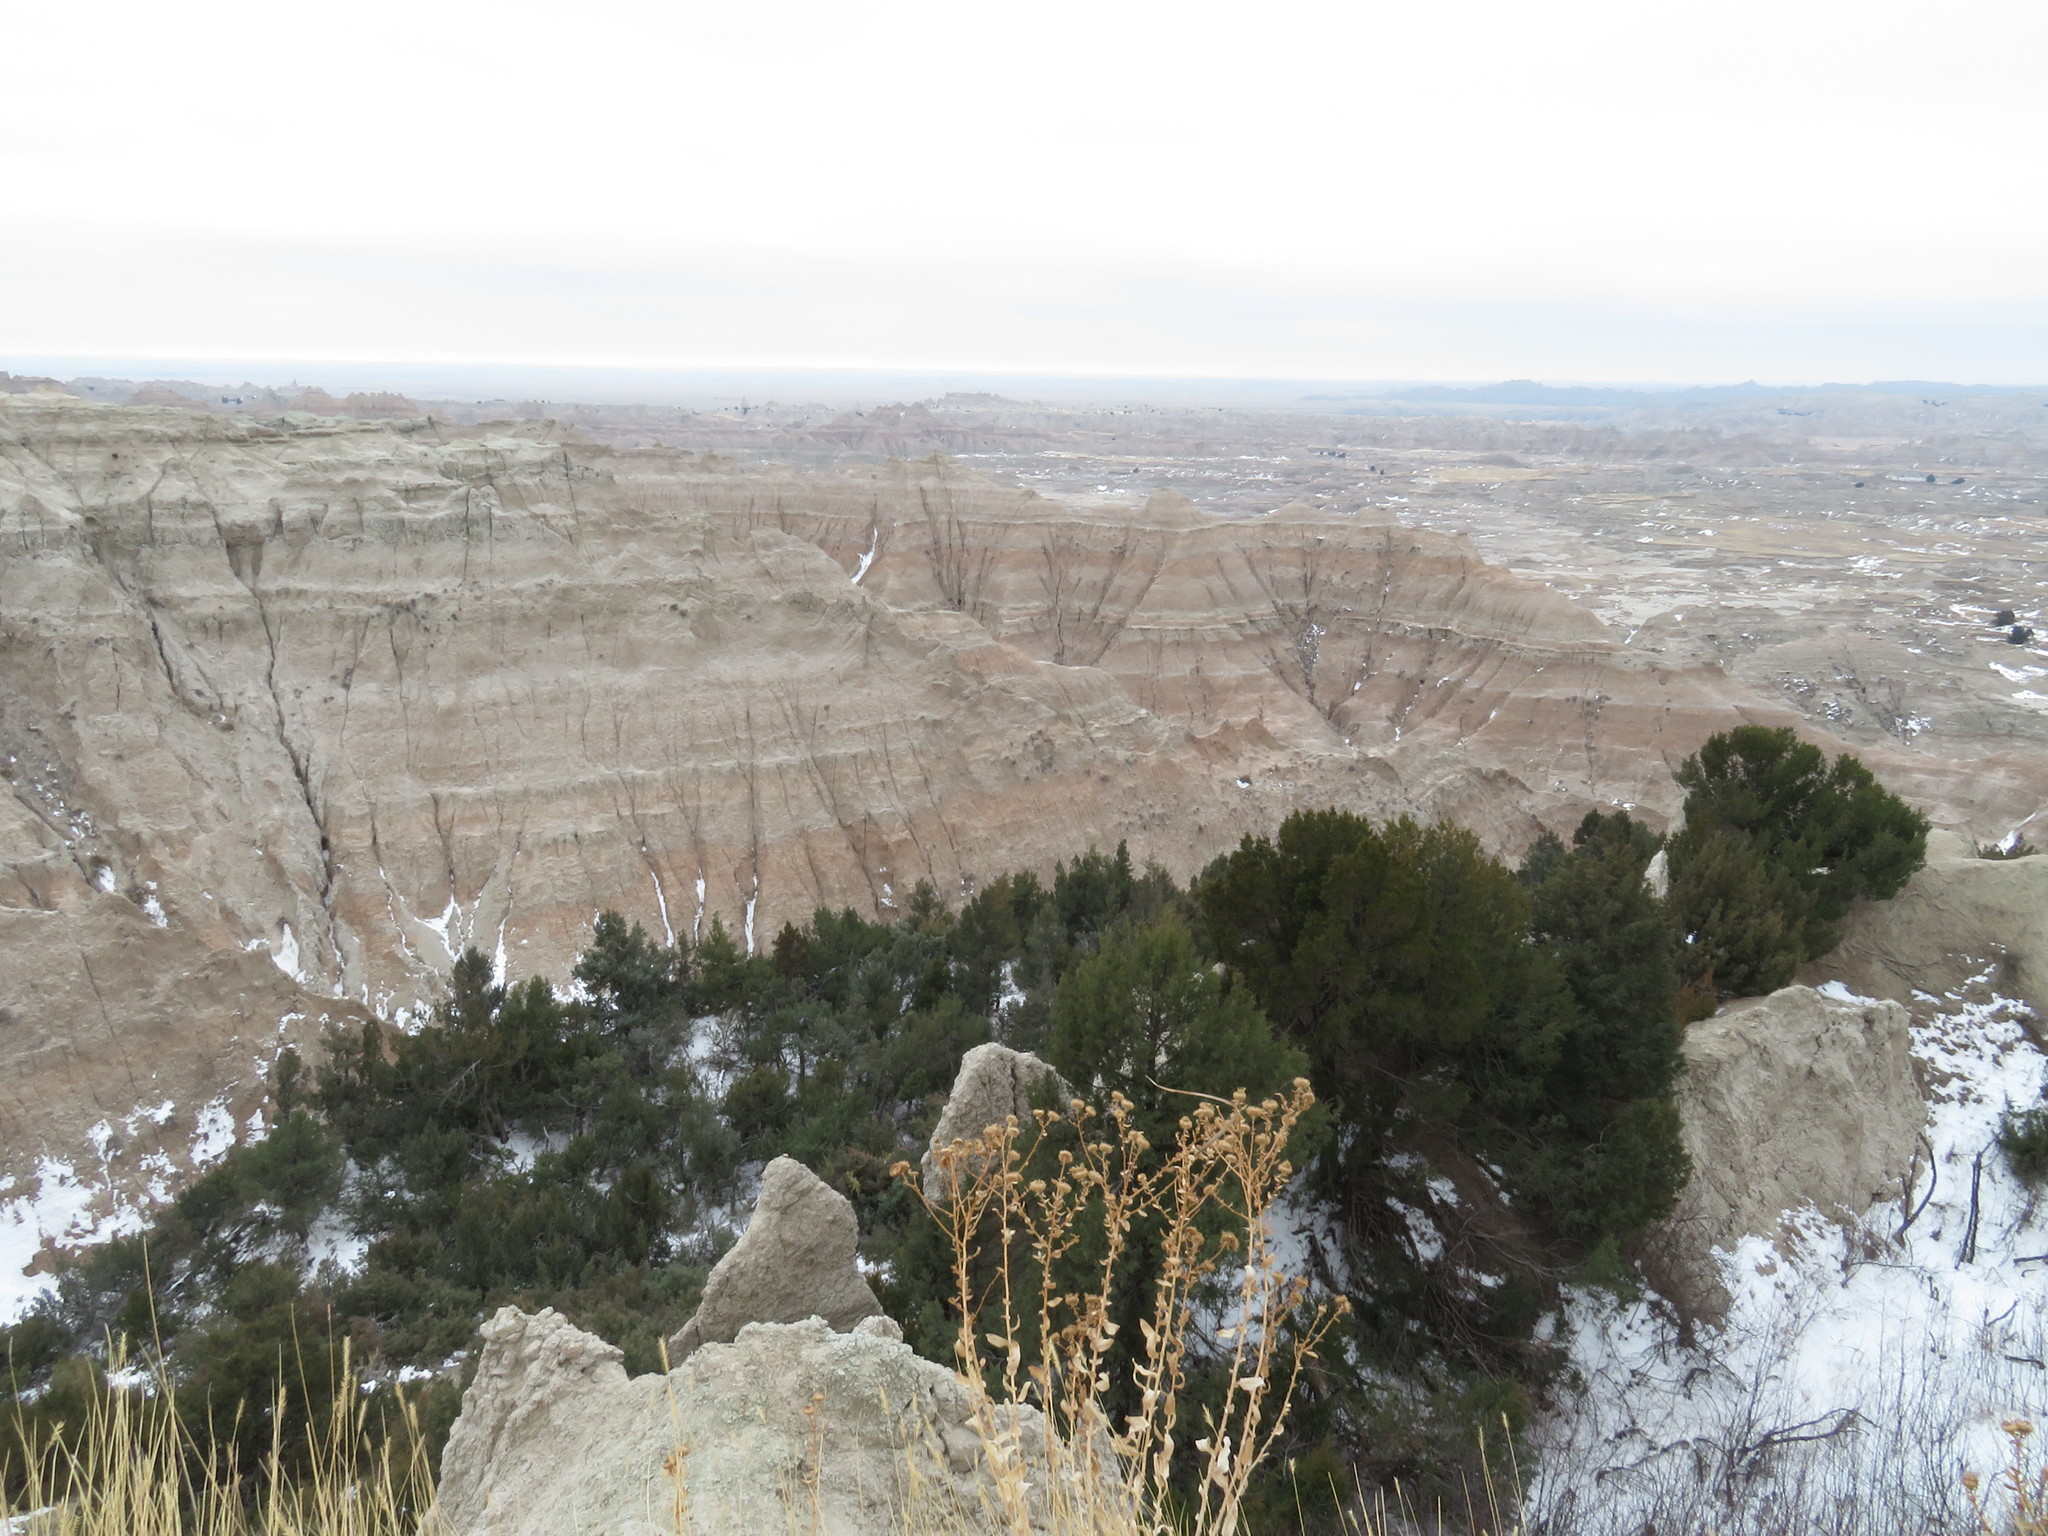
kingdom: Plantae
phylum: Tracheophyta
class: Pinopsida
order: Pinales
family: Cupressaceae
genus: Juniperus
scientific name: Juniperus scopulorum
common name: Rocky mountain juniper
